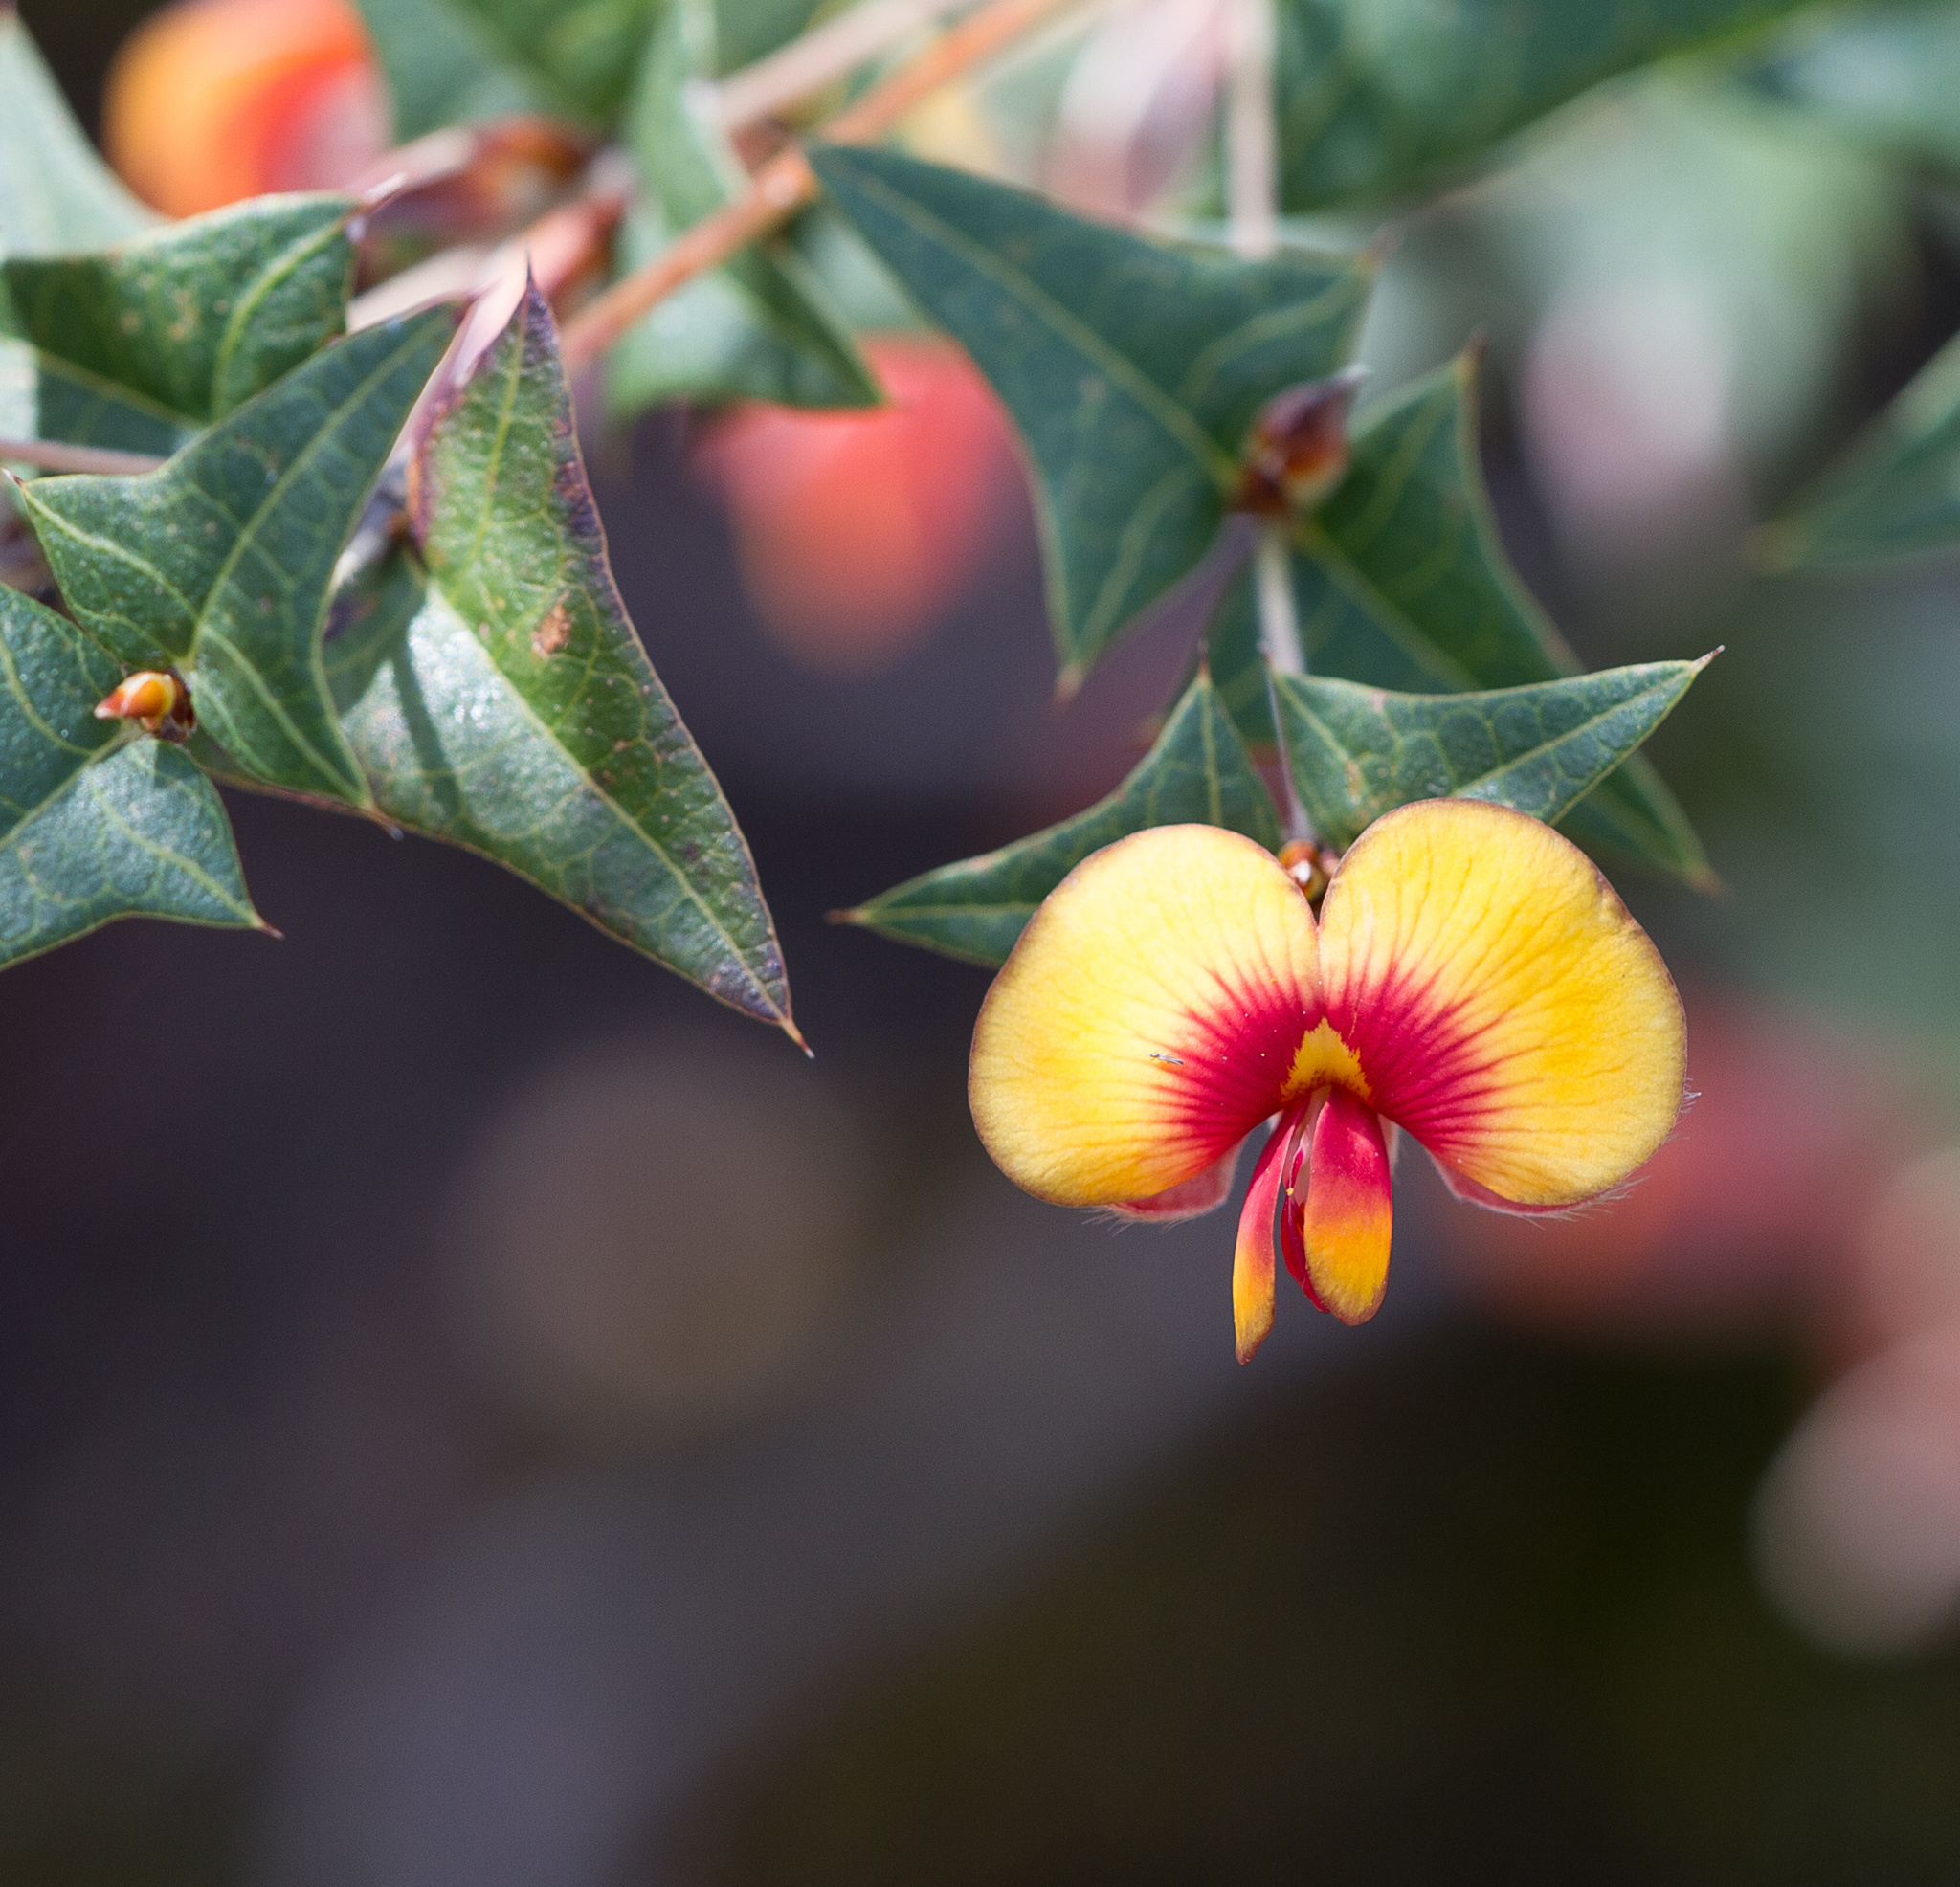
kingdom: Plantae
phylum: Tracheophyta
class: Magnoliopsida
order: Fabales
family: Fabaceae
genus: Platylobium
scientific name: Platylobium obtusangulum
